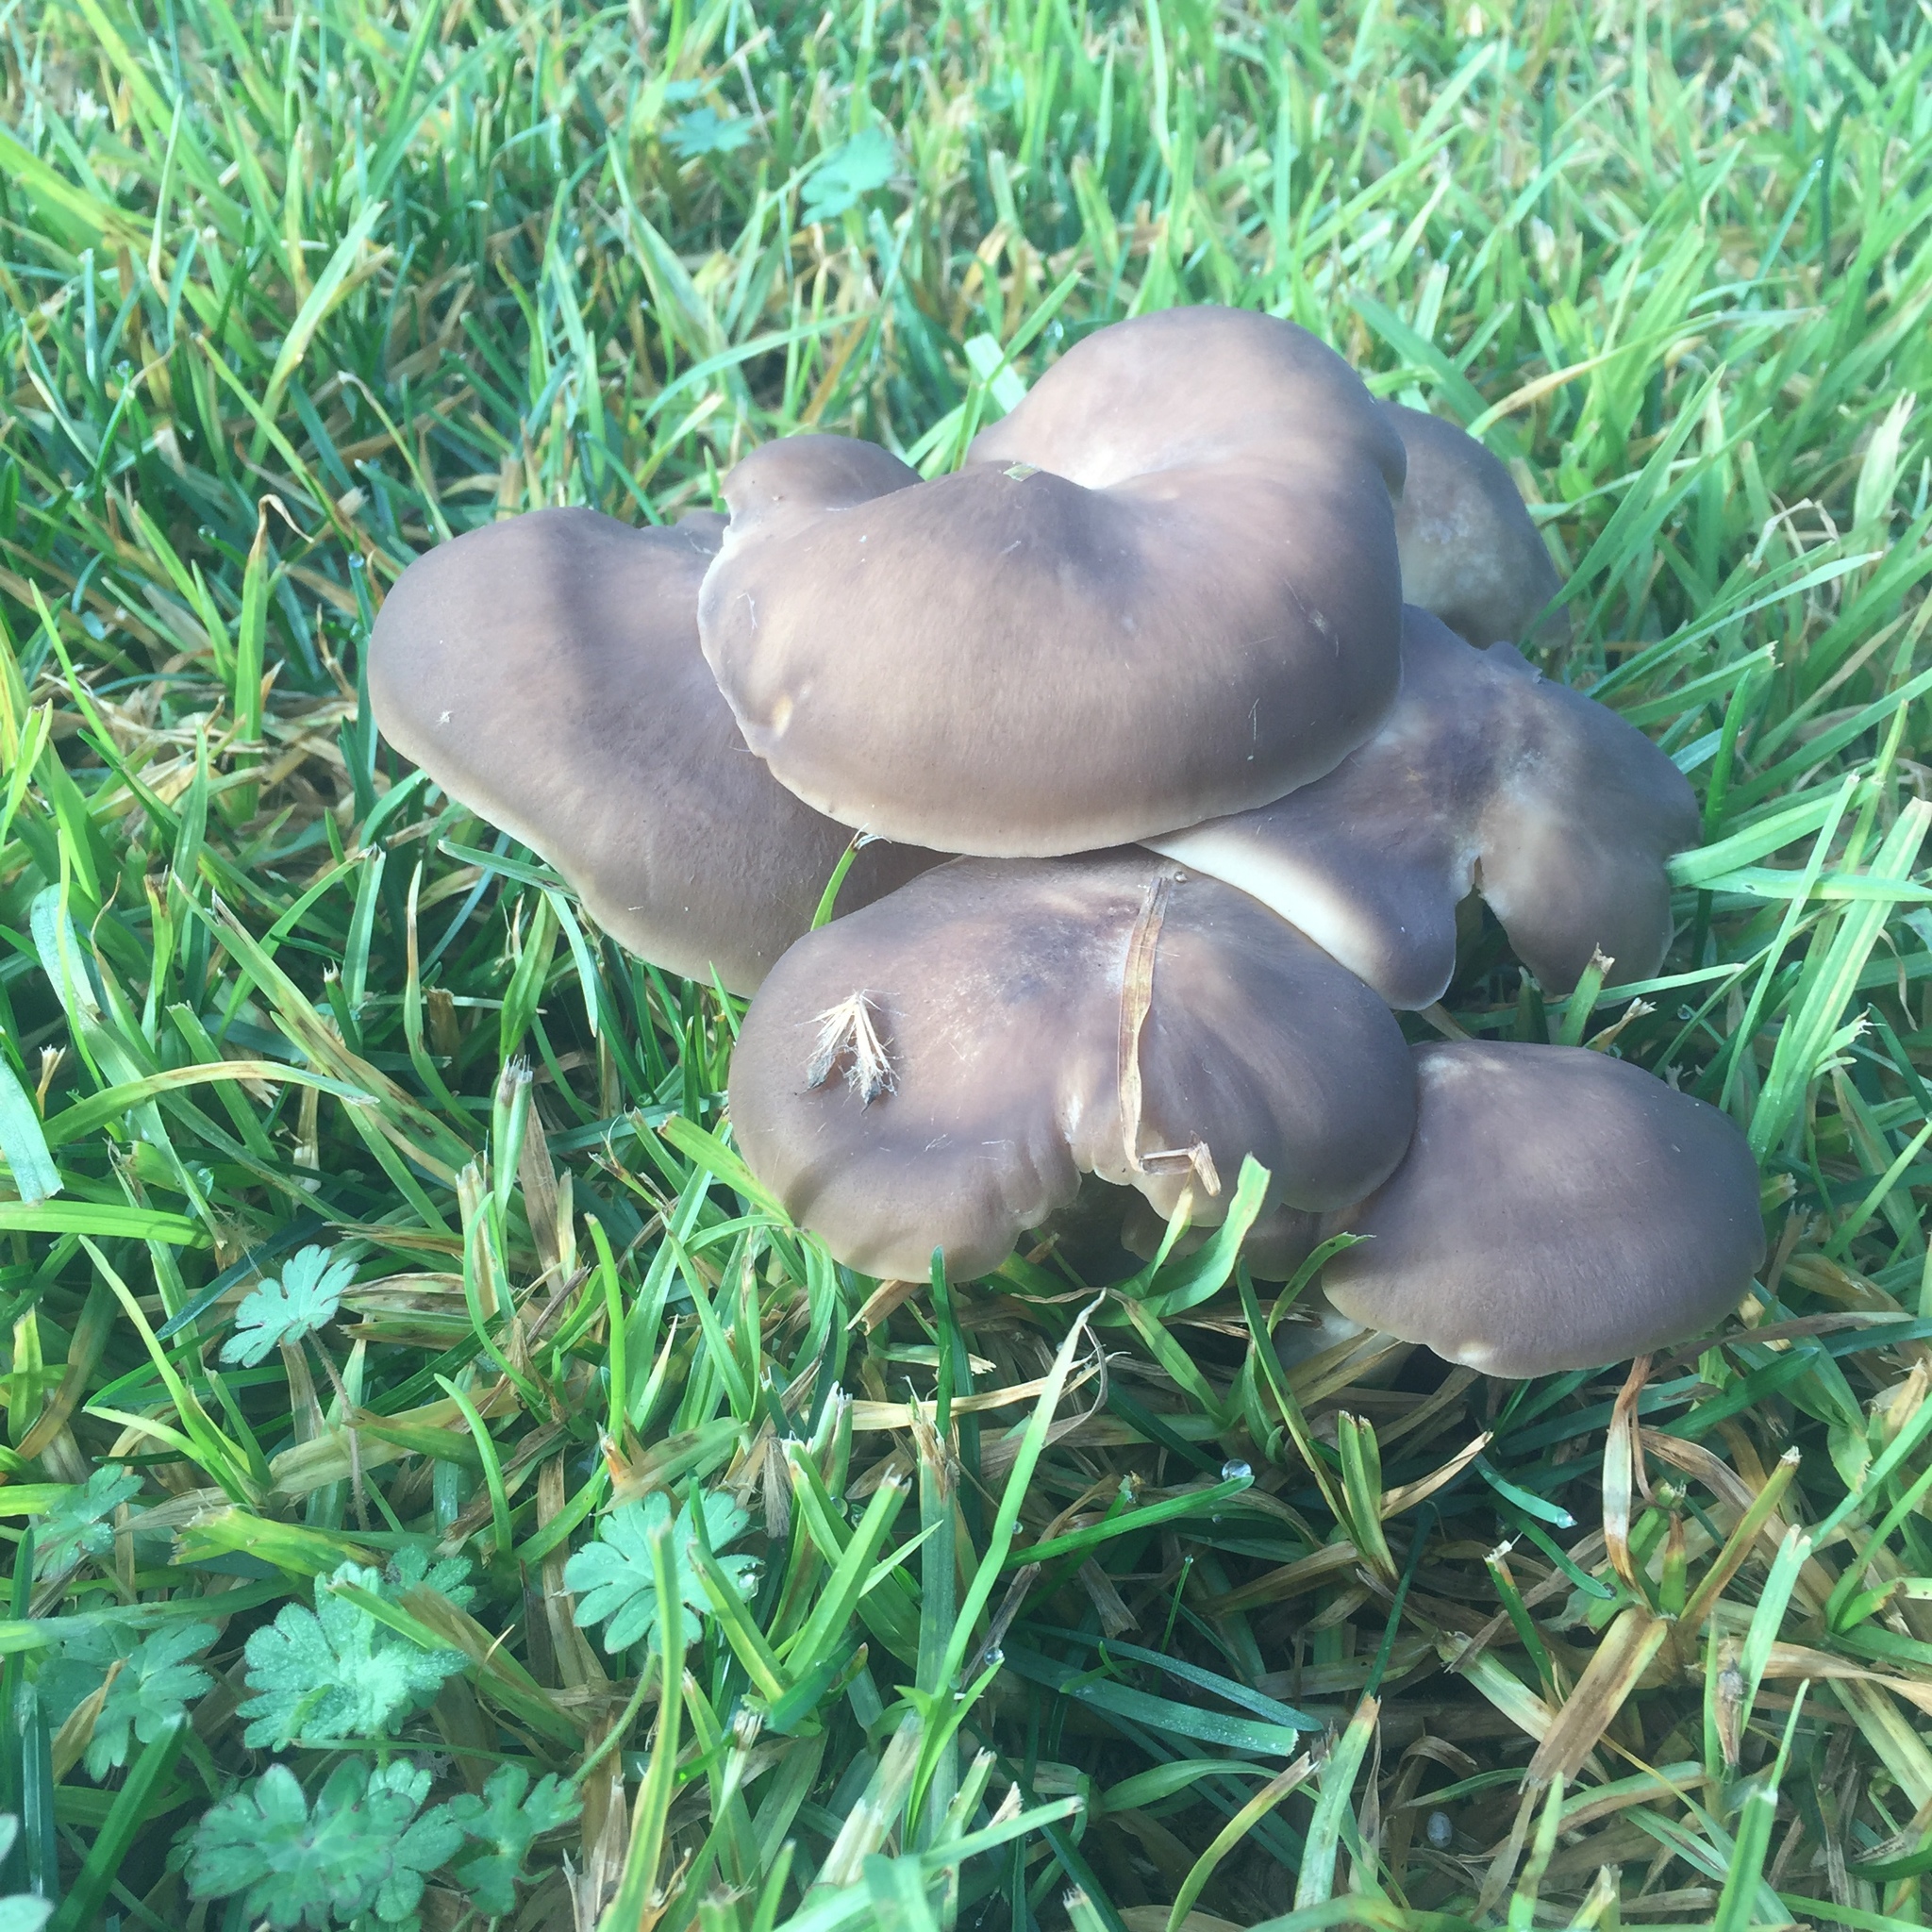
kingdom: Fungi
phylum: Basidiomycota
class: Agaricomycetes
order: Agaricales
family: Lyophyllaceae
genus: Lyophyllum
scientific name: Lyophyllum decastes
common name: Clustered domecap
